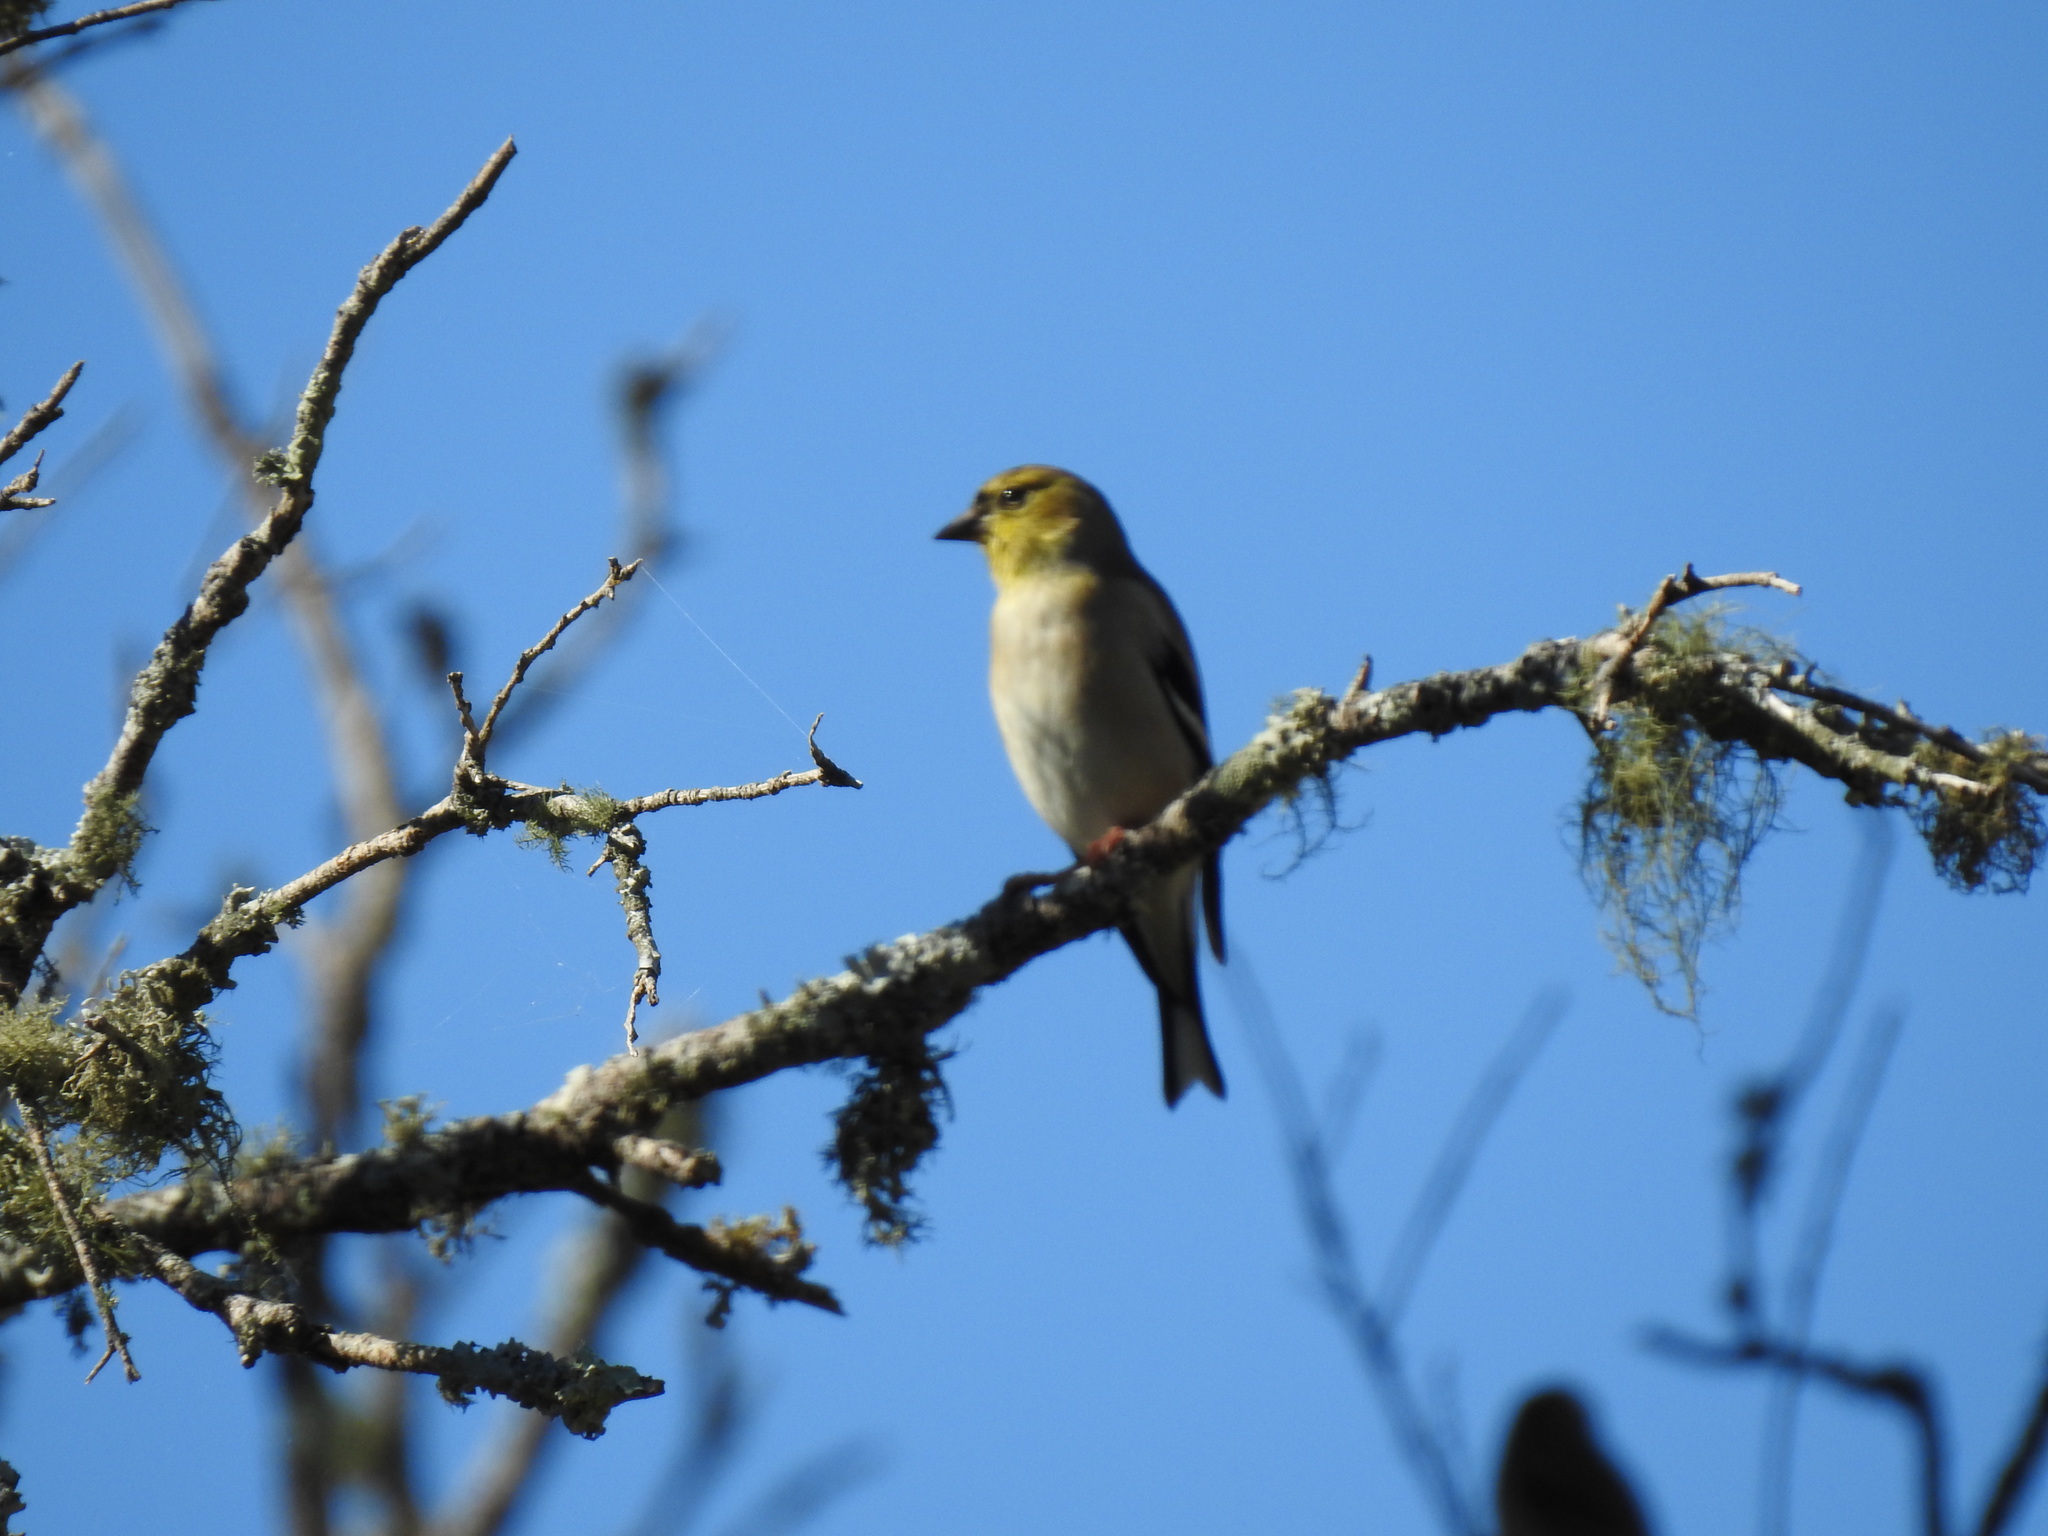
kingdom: Animalia
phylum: Chordata
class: Aves
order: Passeriformes
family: Fringillidae
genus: Spinus
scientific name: Spinus tristis
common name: American goldfinch
